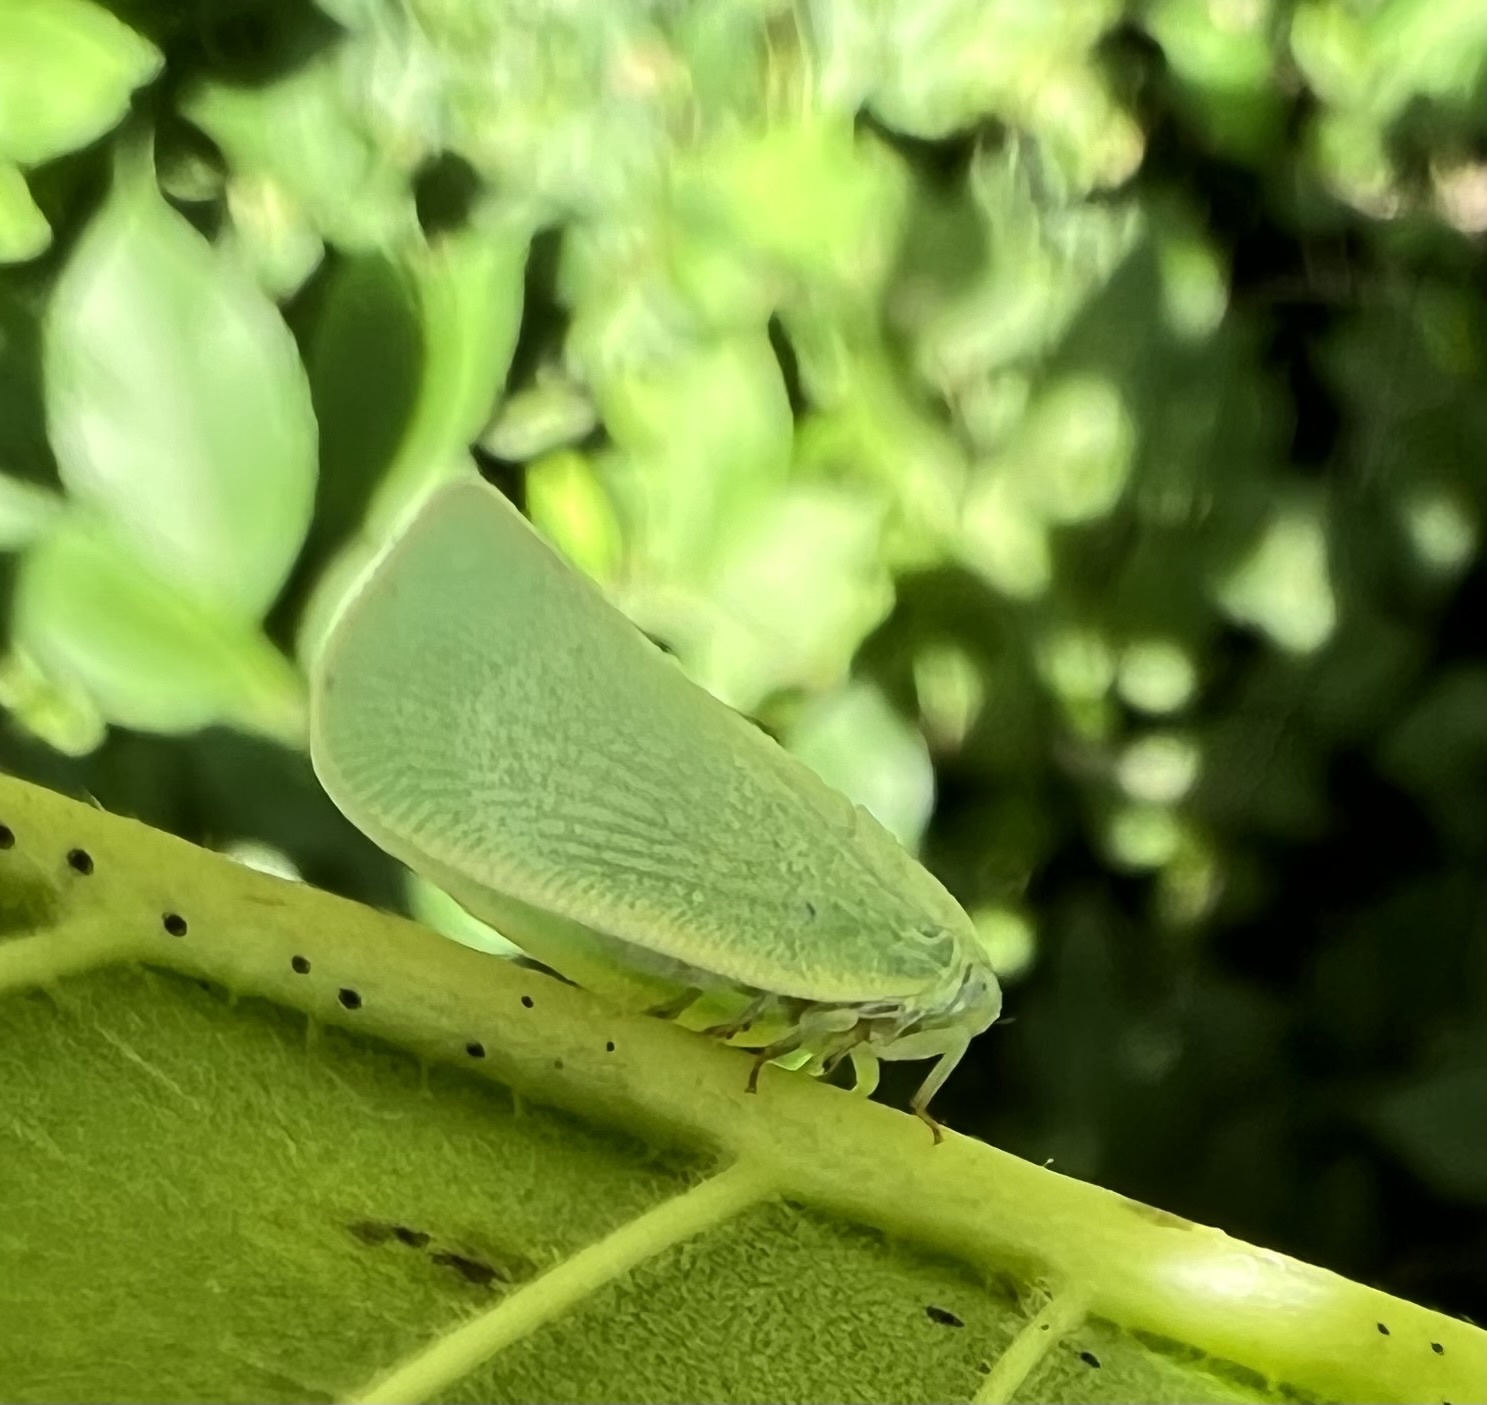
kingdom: Animalia
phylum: Arthropoda
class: Insecta
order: Hemiptera
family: Flatidae
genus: Flatormenis
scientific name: Flatormenis proxima
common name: Northern flatid planthopper
